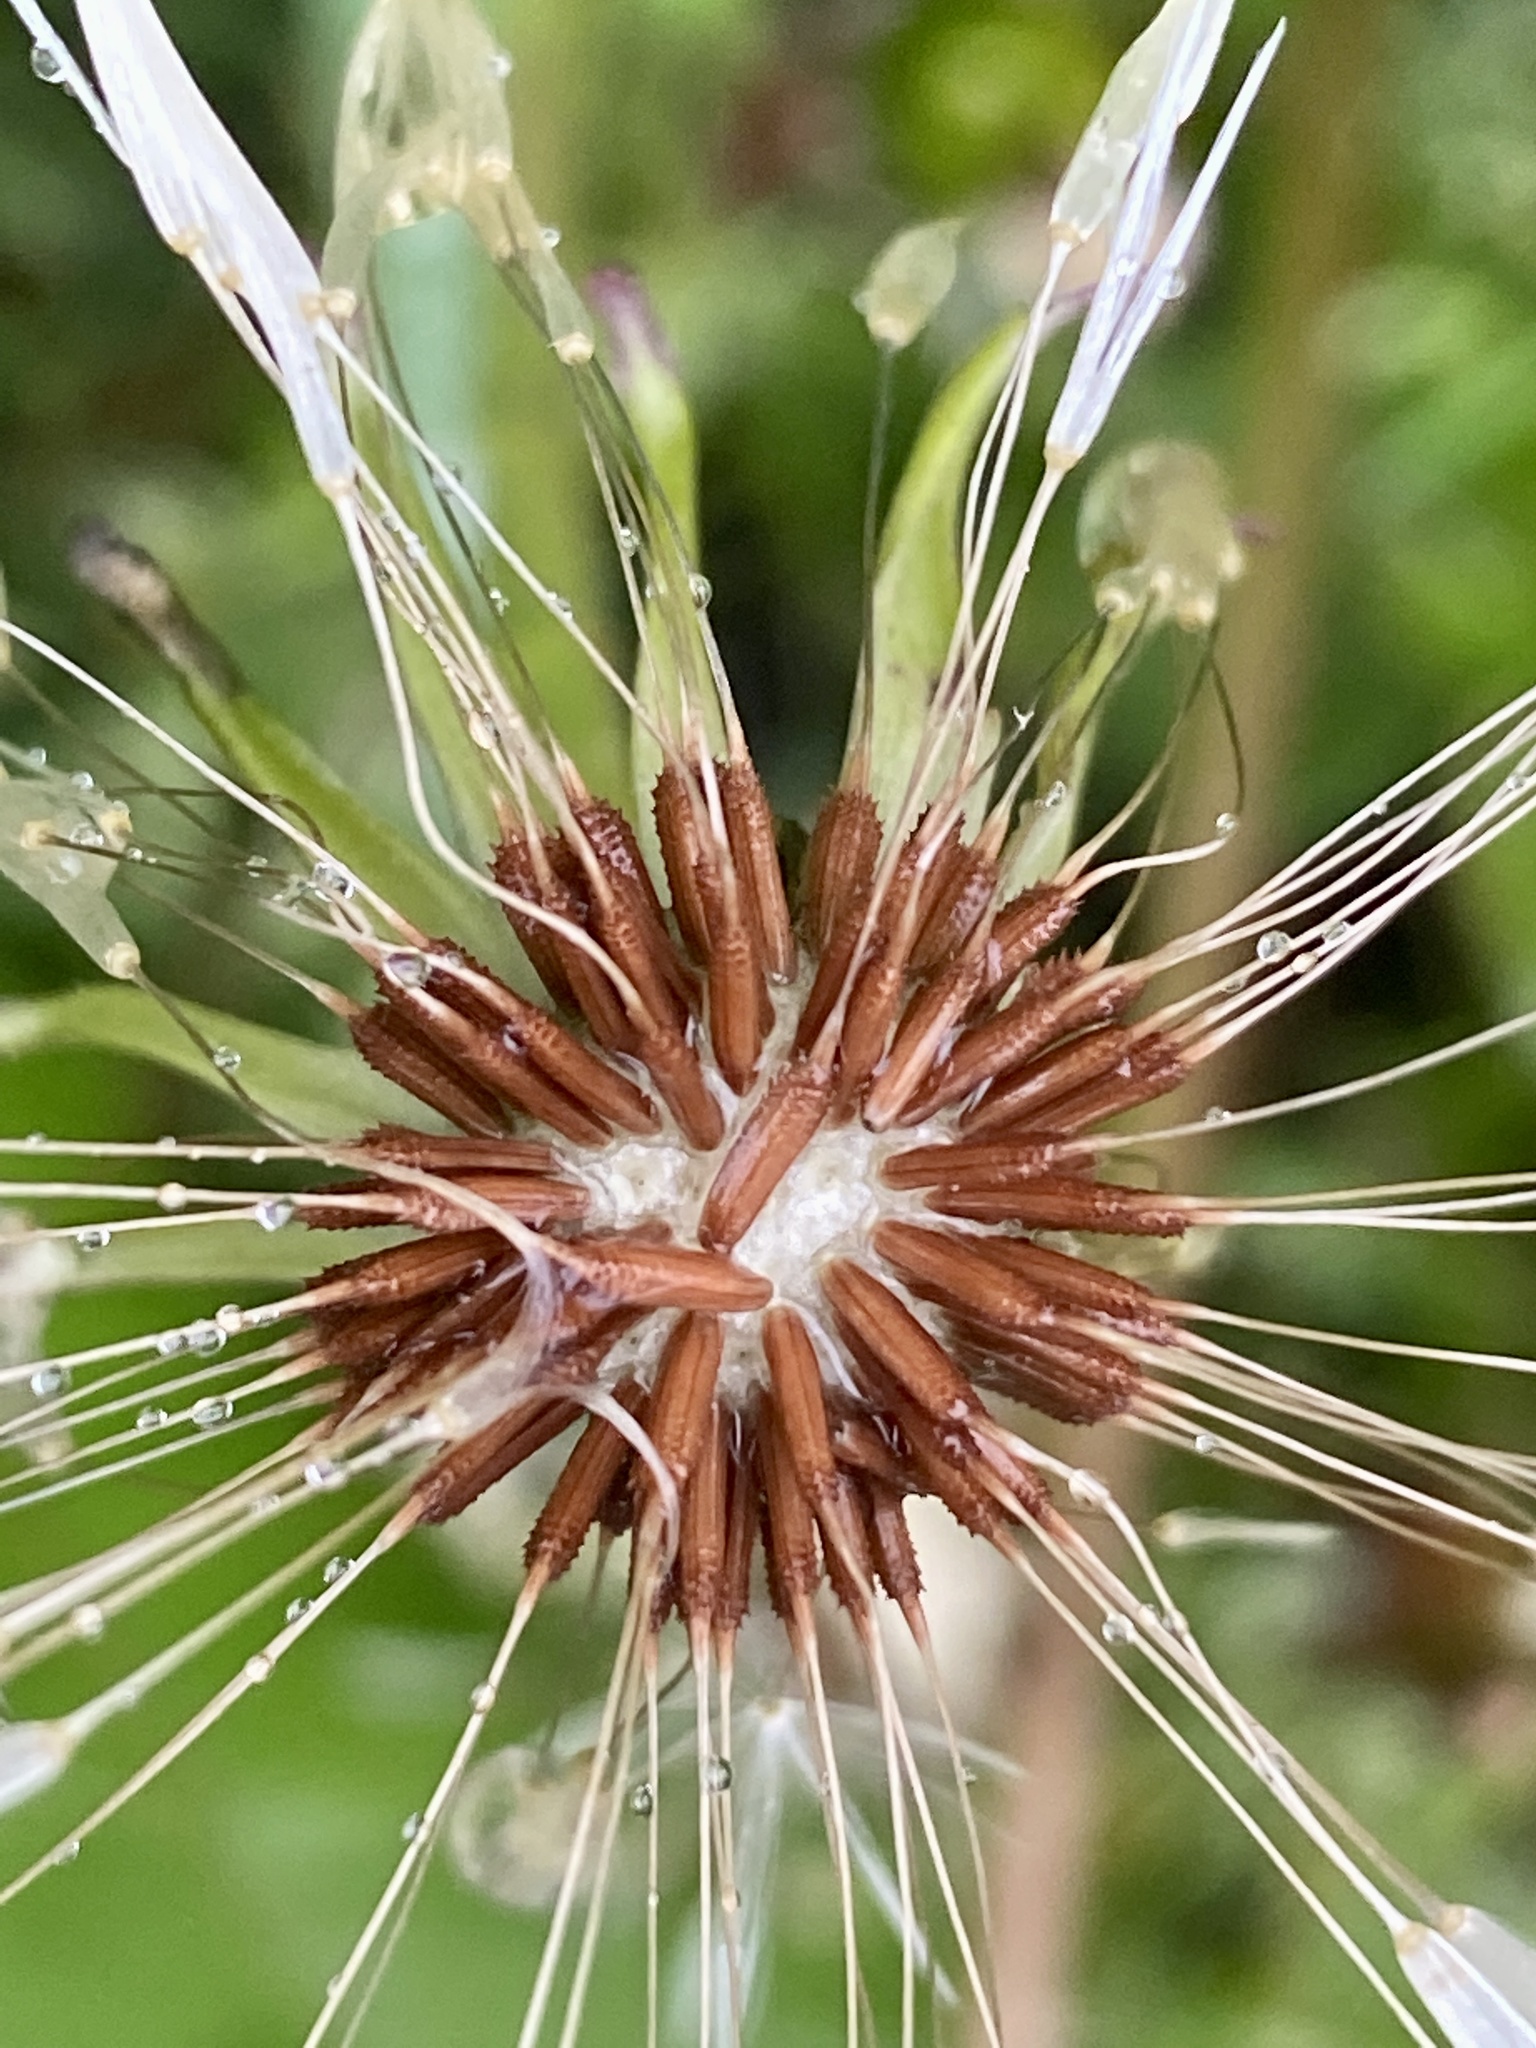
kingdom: Plantae
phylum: Tracheophyta
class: Magnoliopsida
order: Asterales
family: Asteraceae
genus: Taraxacum
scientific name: Taraxacum erythrospermum
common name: Rock dandelion
